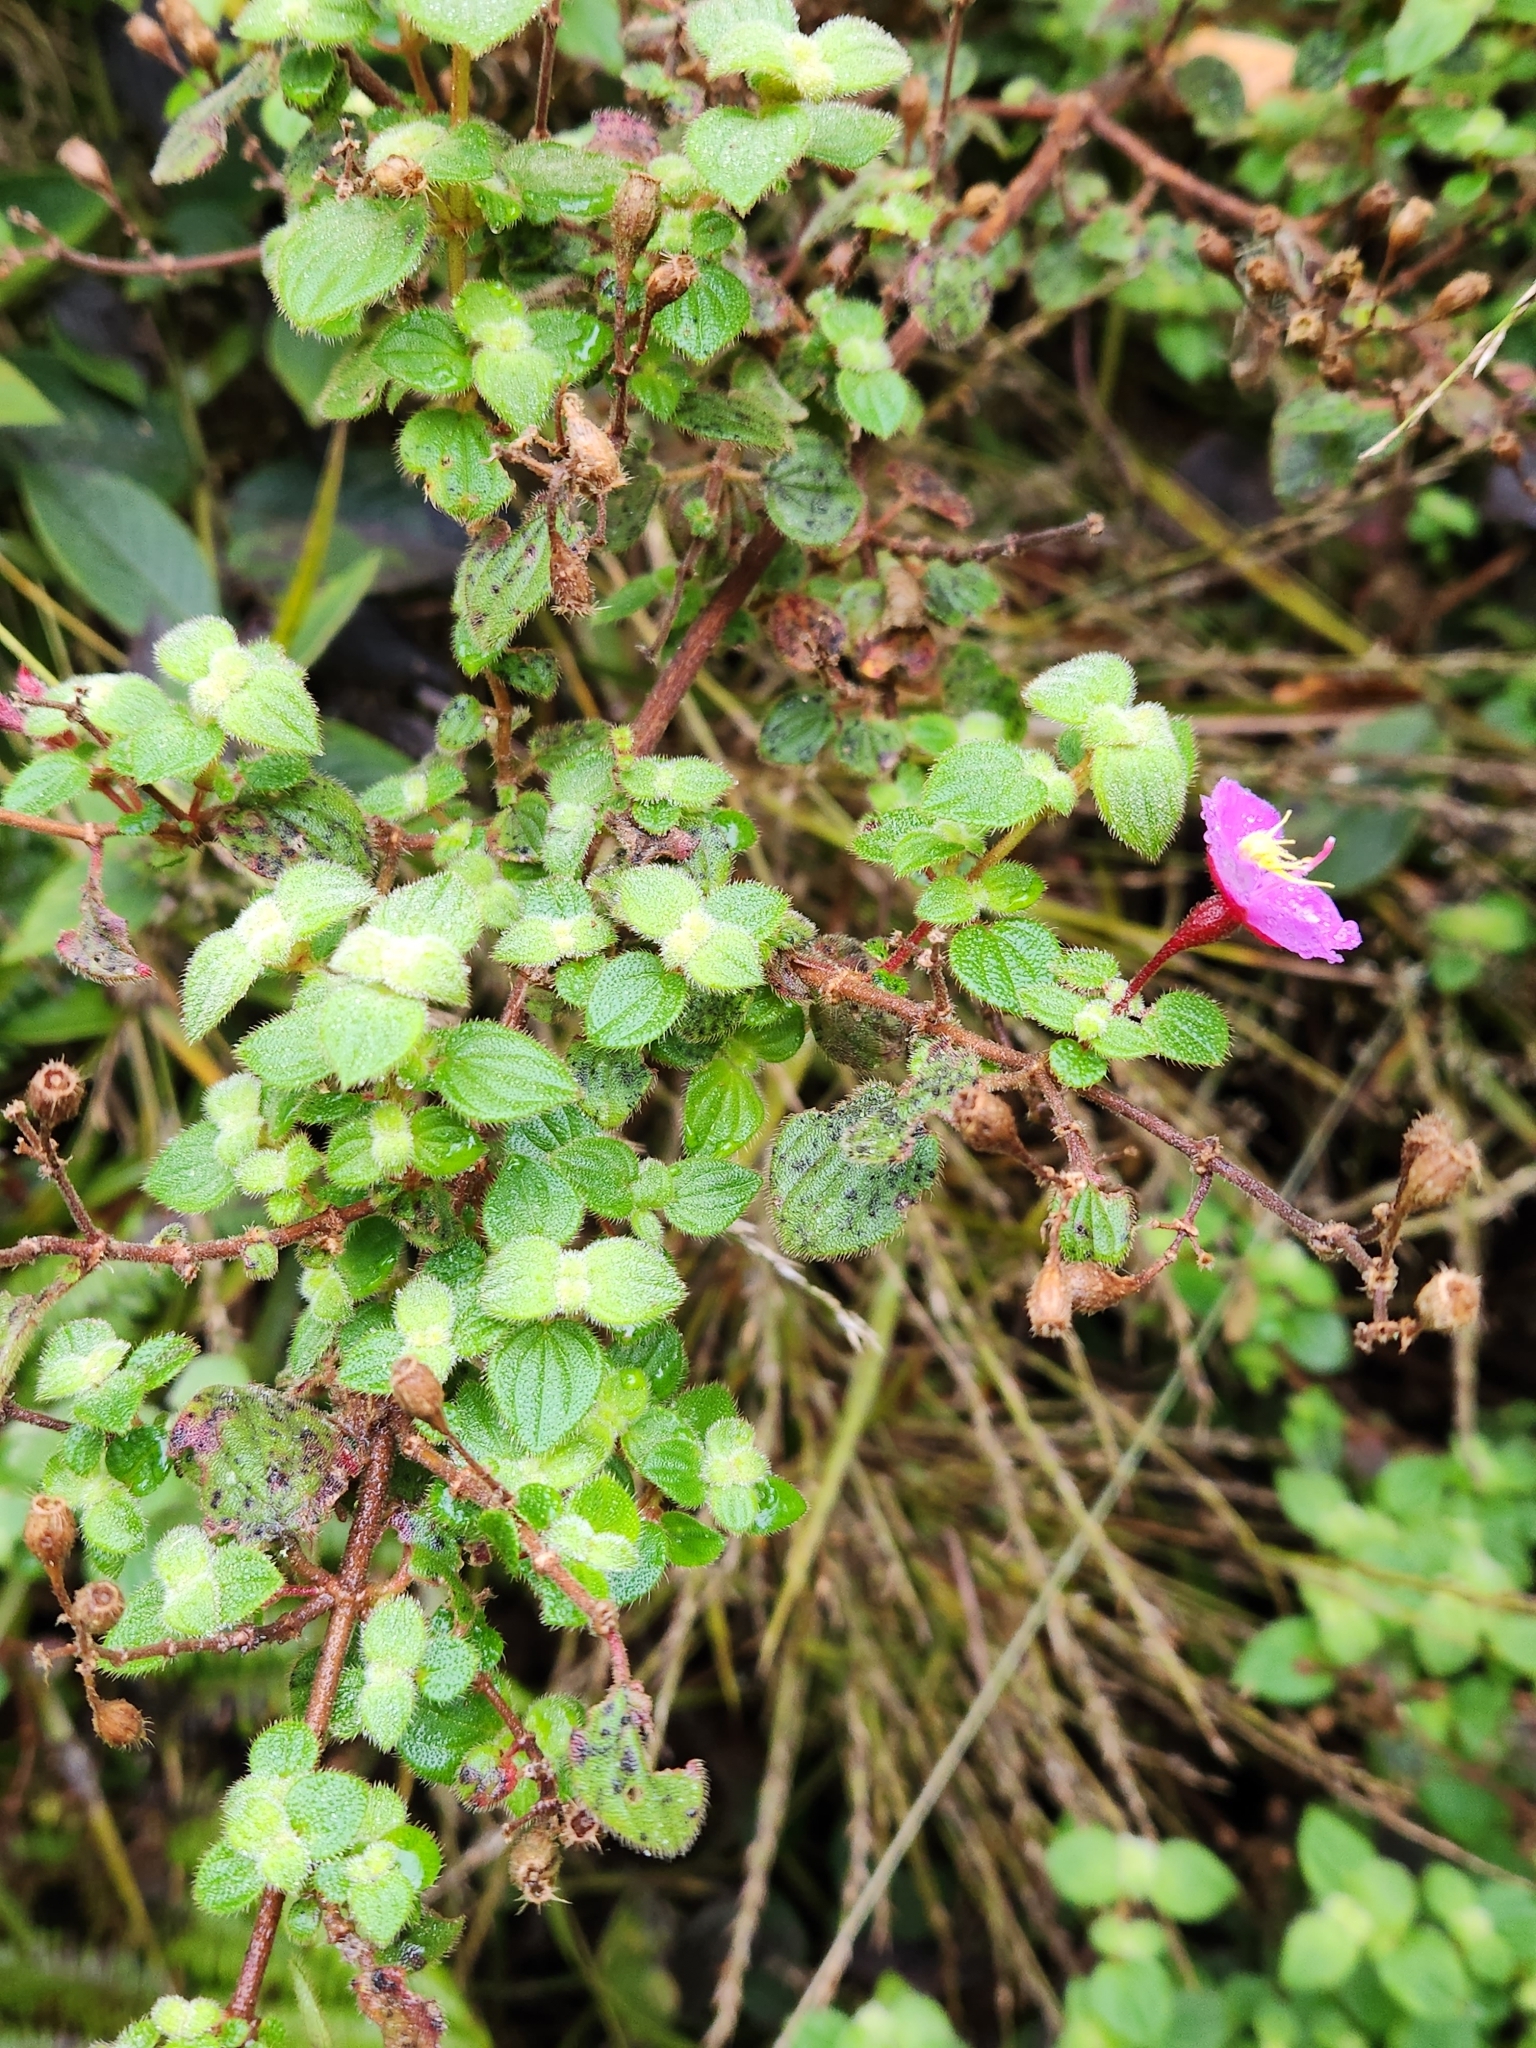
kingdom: Plantae
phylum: Tracheophyta
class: Magnoliopsida
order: Myrtales
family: Melastomataceae
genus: Monochaetum
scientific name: Monochaetum bonplandii
